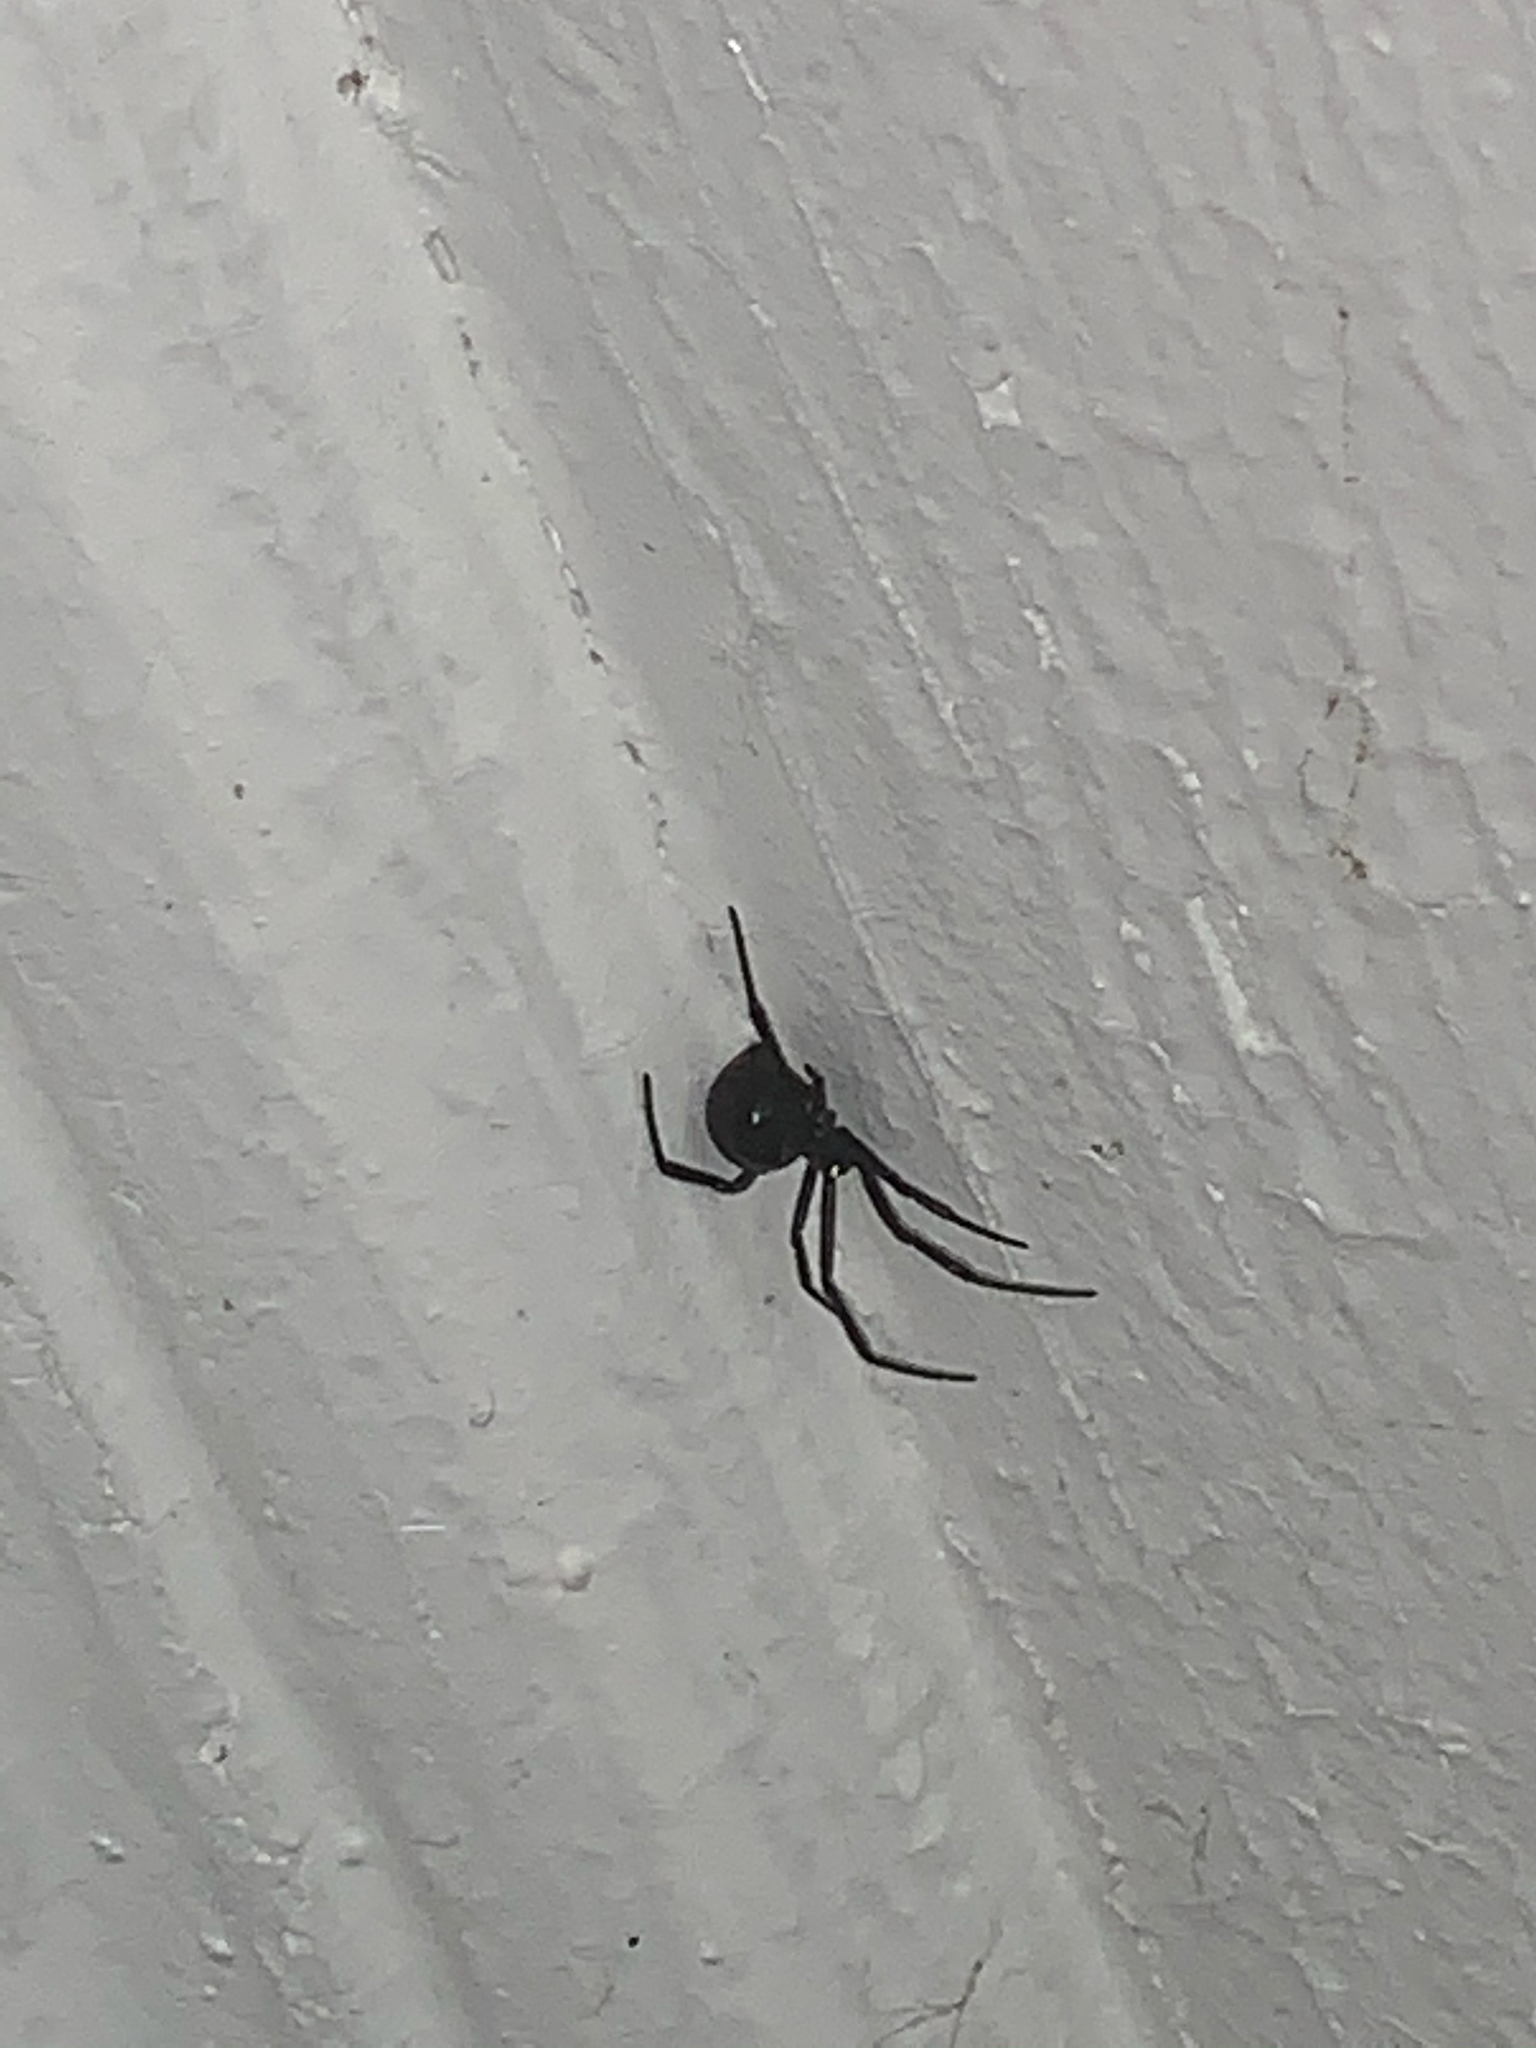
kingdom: Animalia
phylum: Arthropoda
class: Arachnida
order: Araneae
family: Theridiidae
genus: Latrodectus
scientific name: Latrodectus mactans
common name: Cobweb spiders
